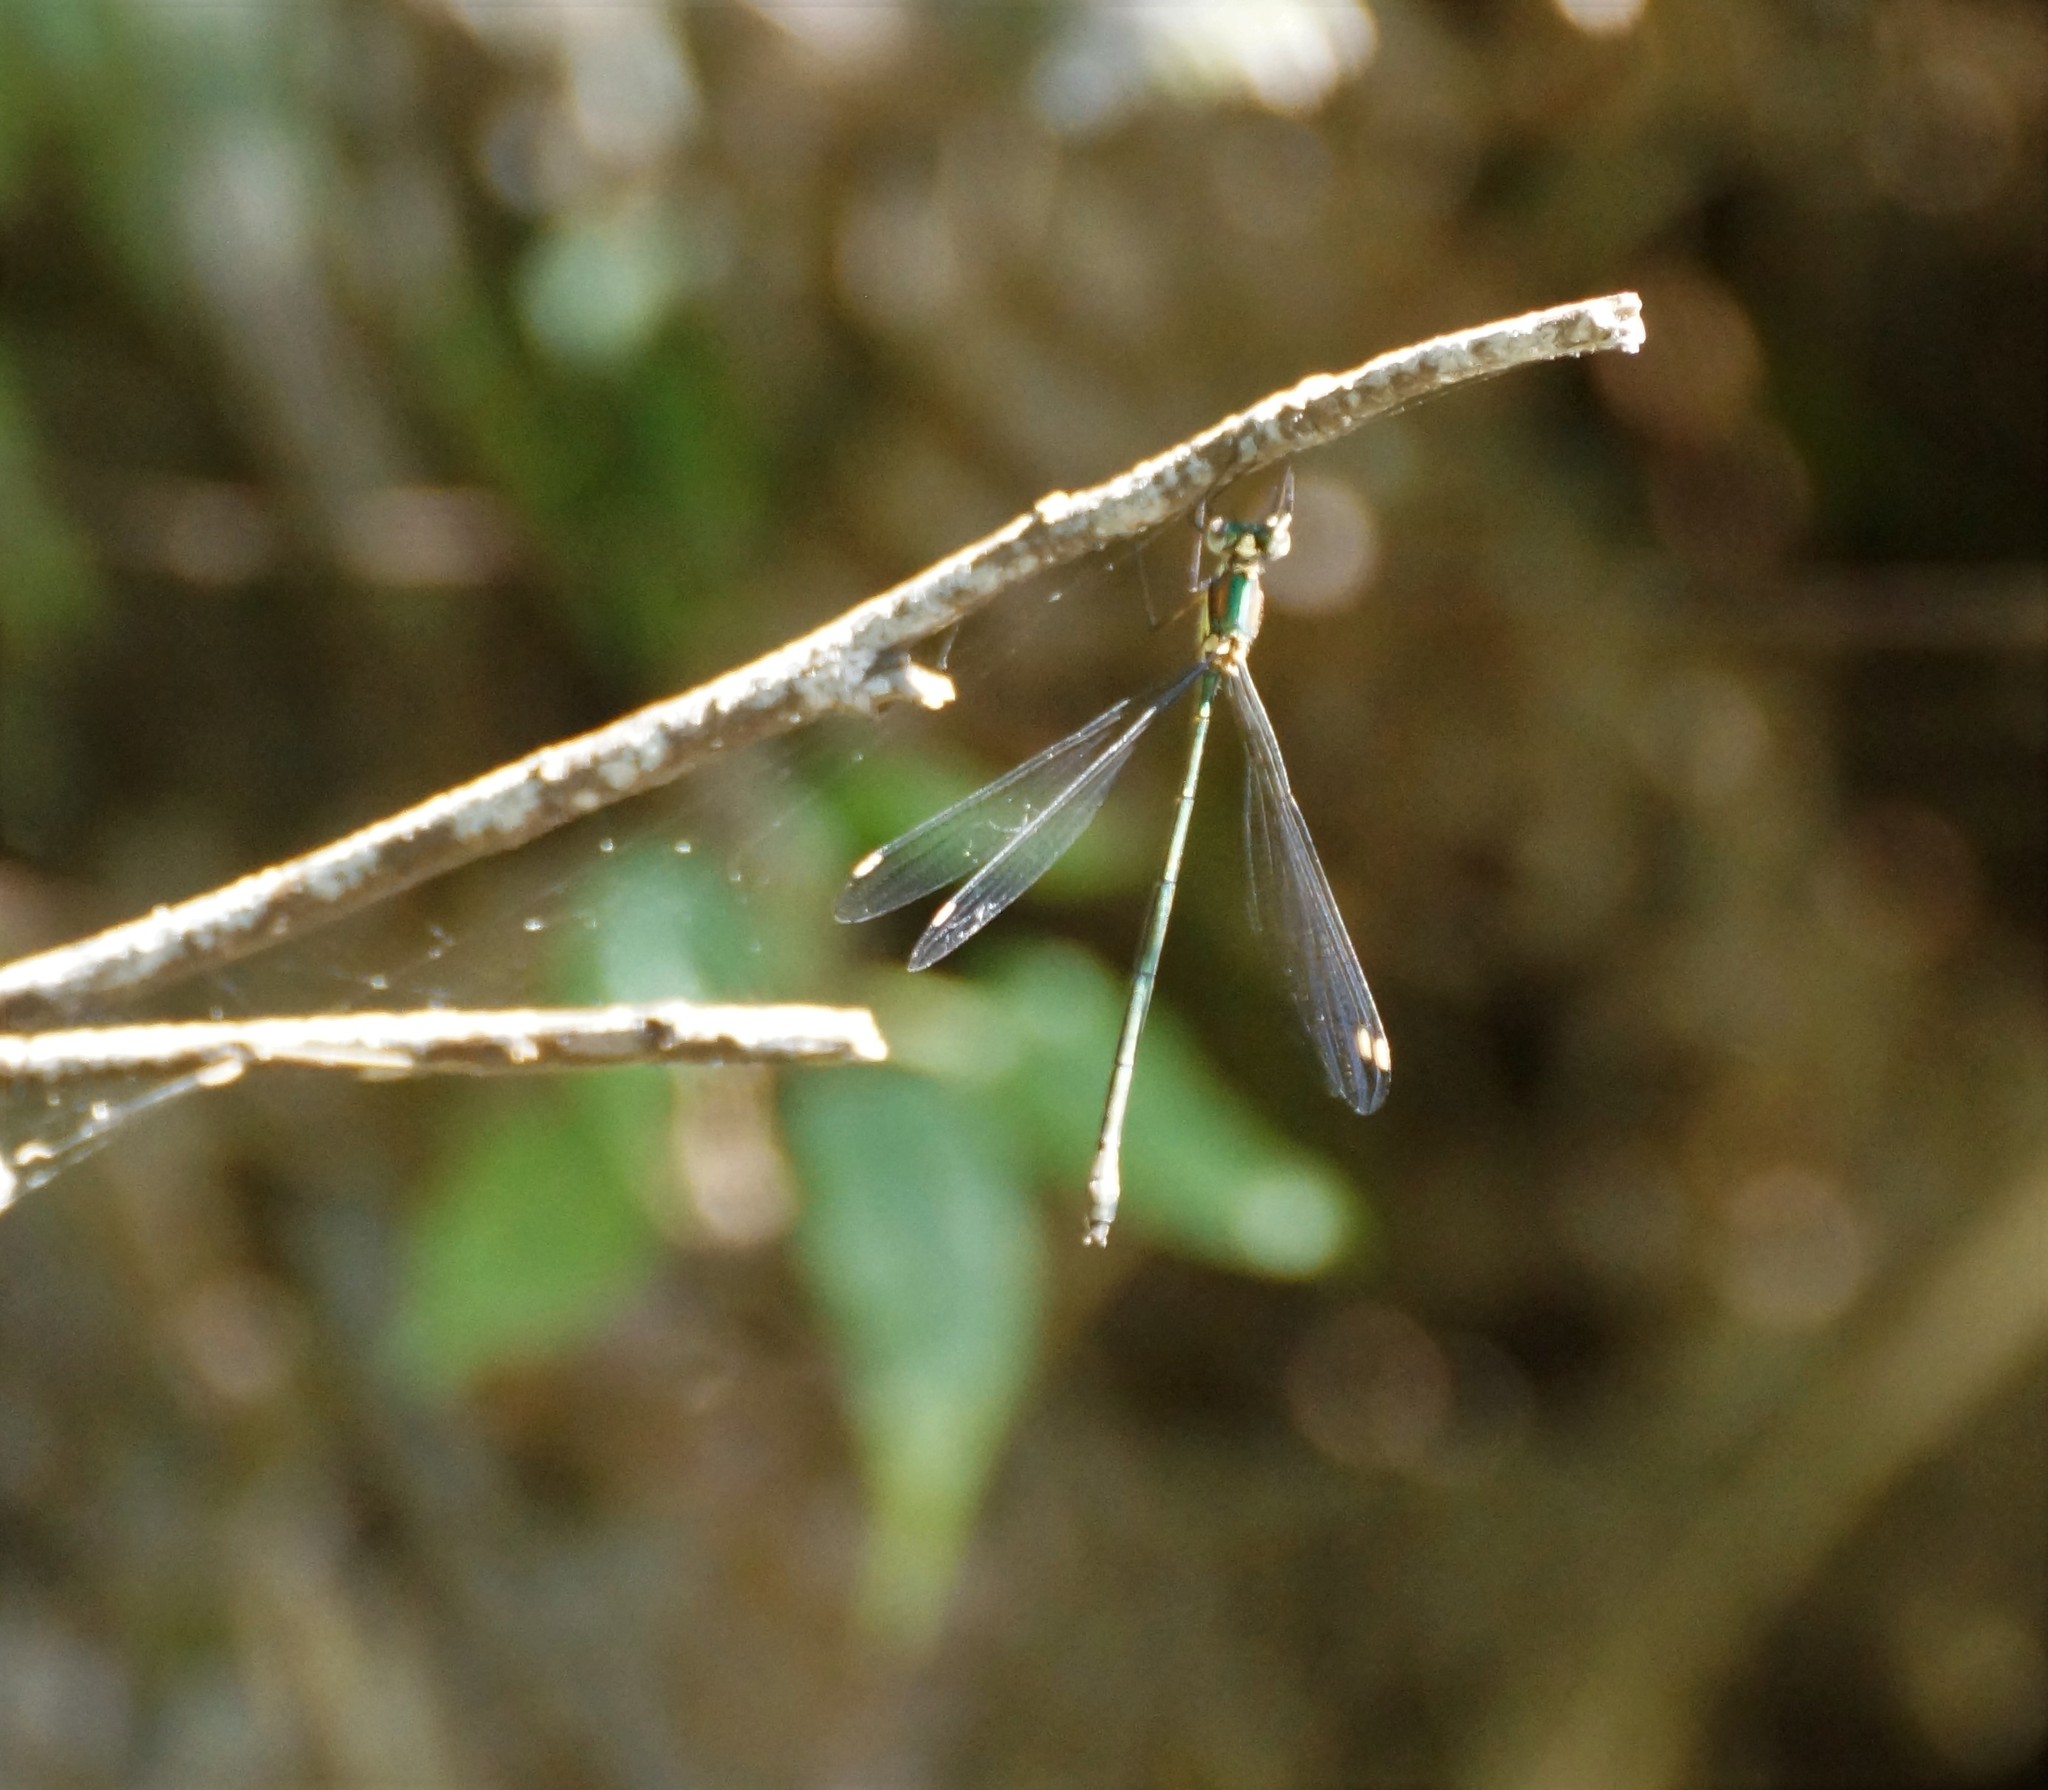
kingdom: Animalia
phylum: Arthropoda
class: Insecta
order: Odonata
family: Synlestidae
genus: Synlestes
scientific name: Synlestes weyersii
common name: Bronze needle
